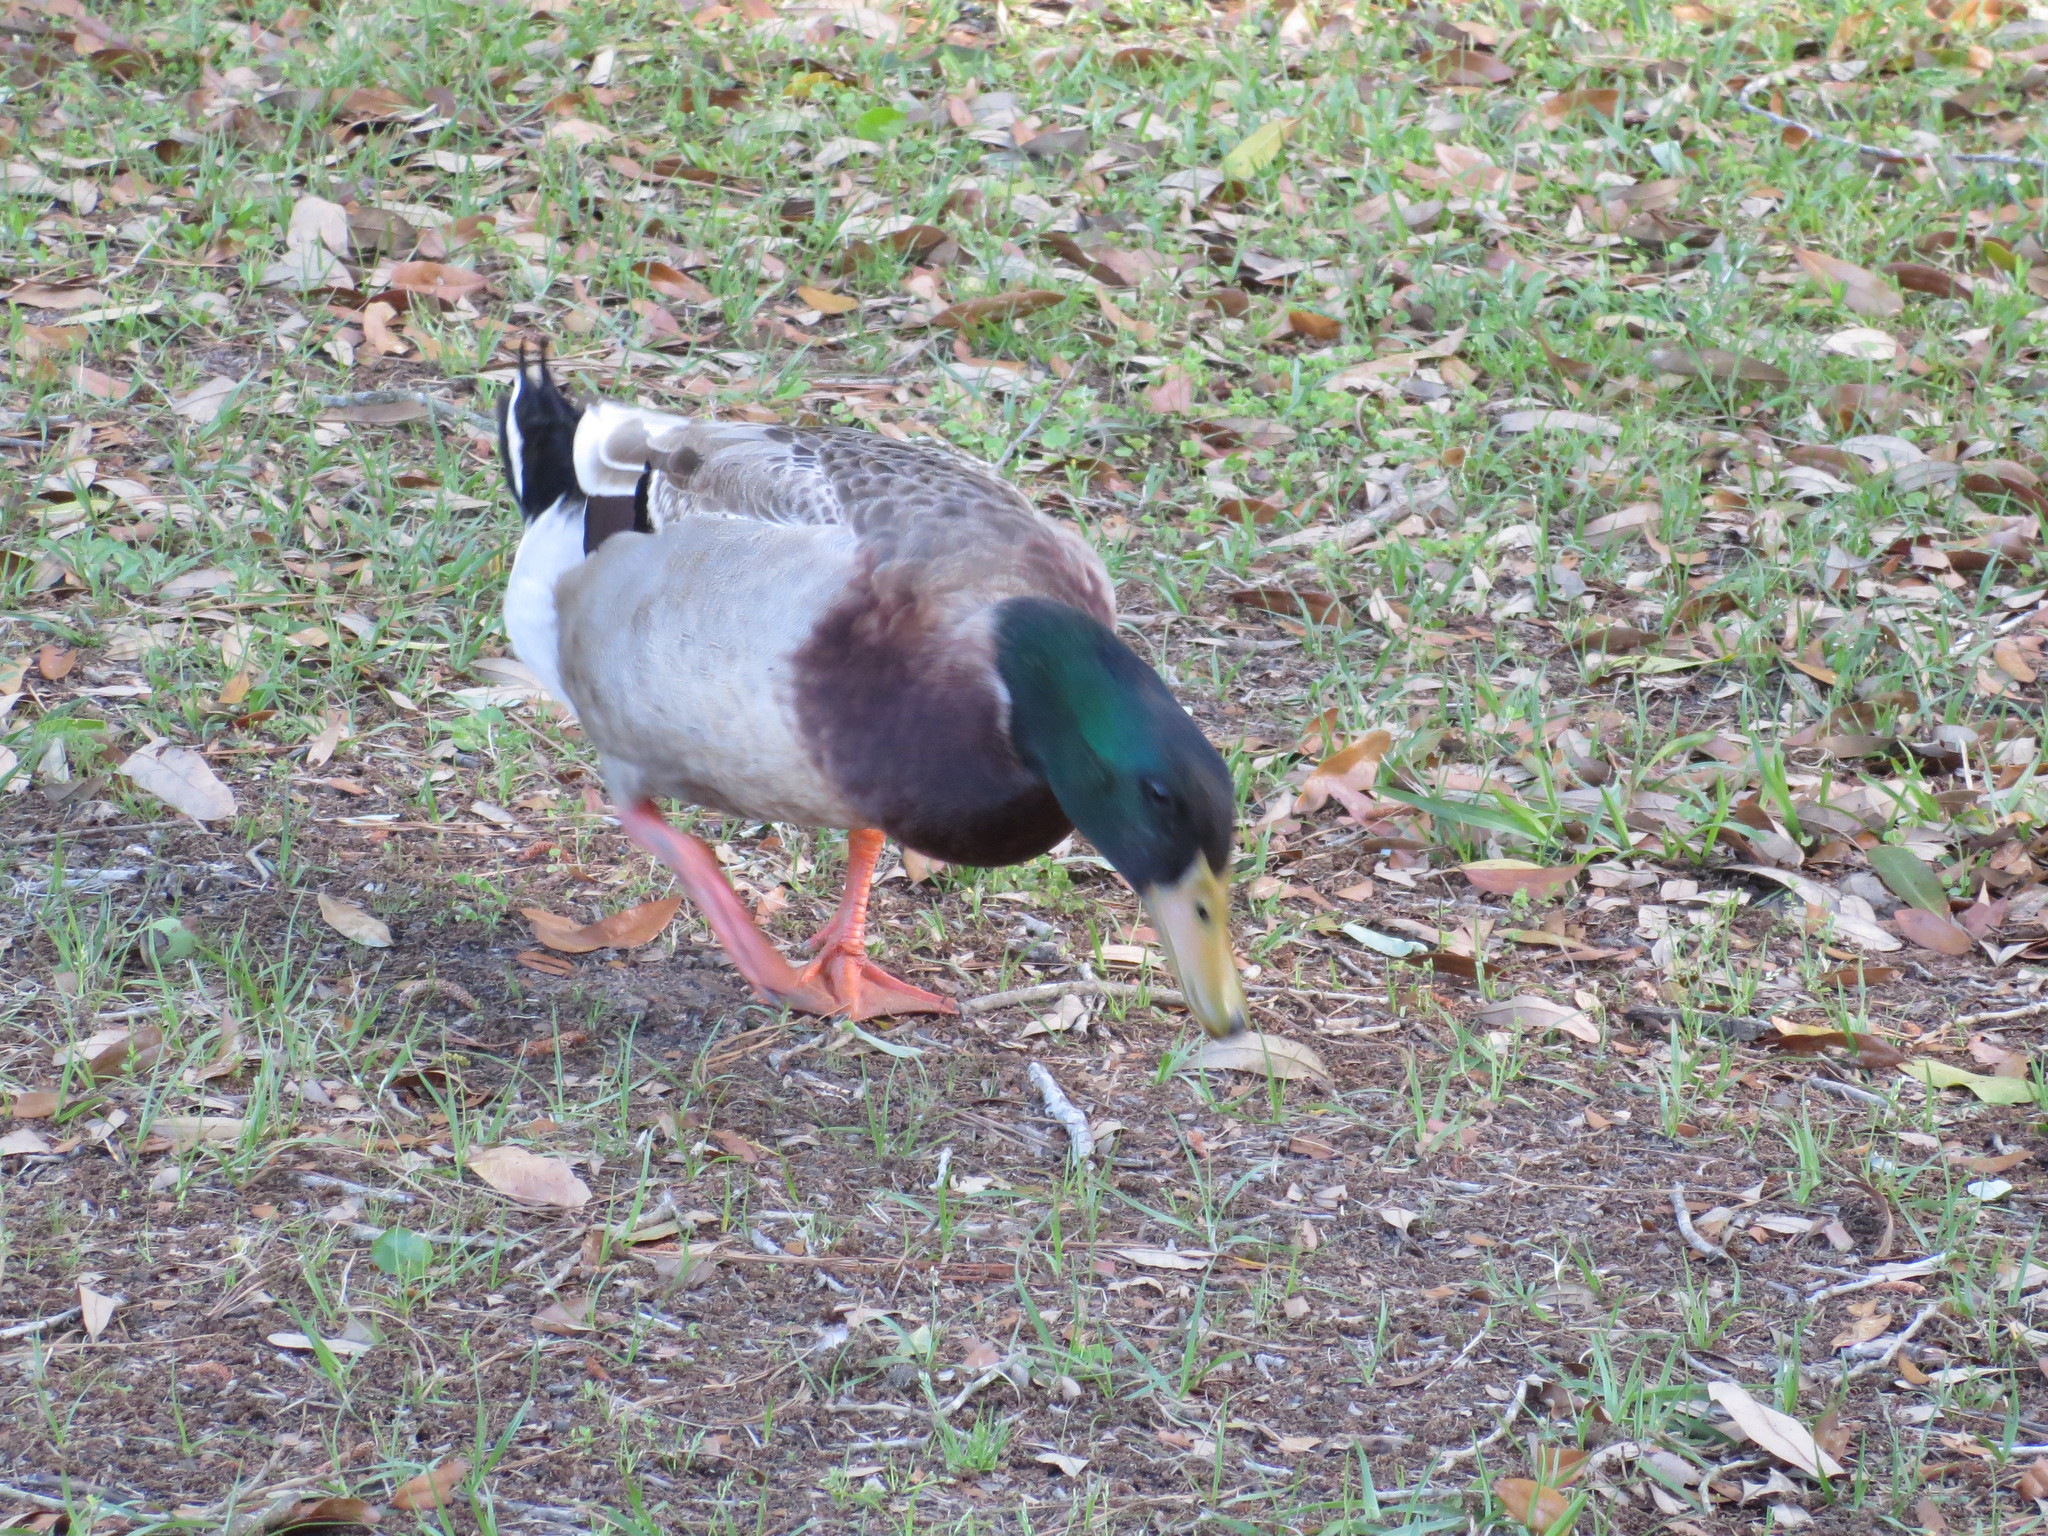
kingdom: Animalia
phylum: Chordata
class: Aves
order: Anseriformes
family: Anatidae
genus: Anas
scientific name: Anas platyrhynchos
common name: Mallard
